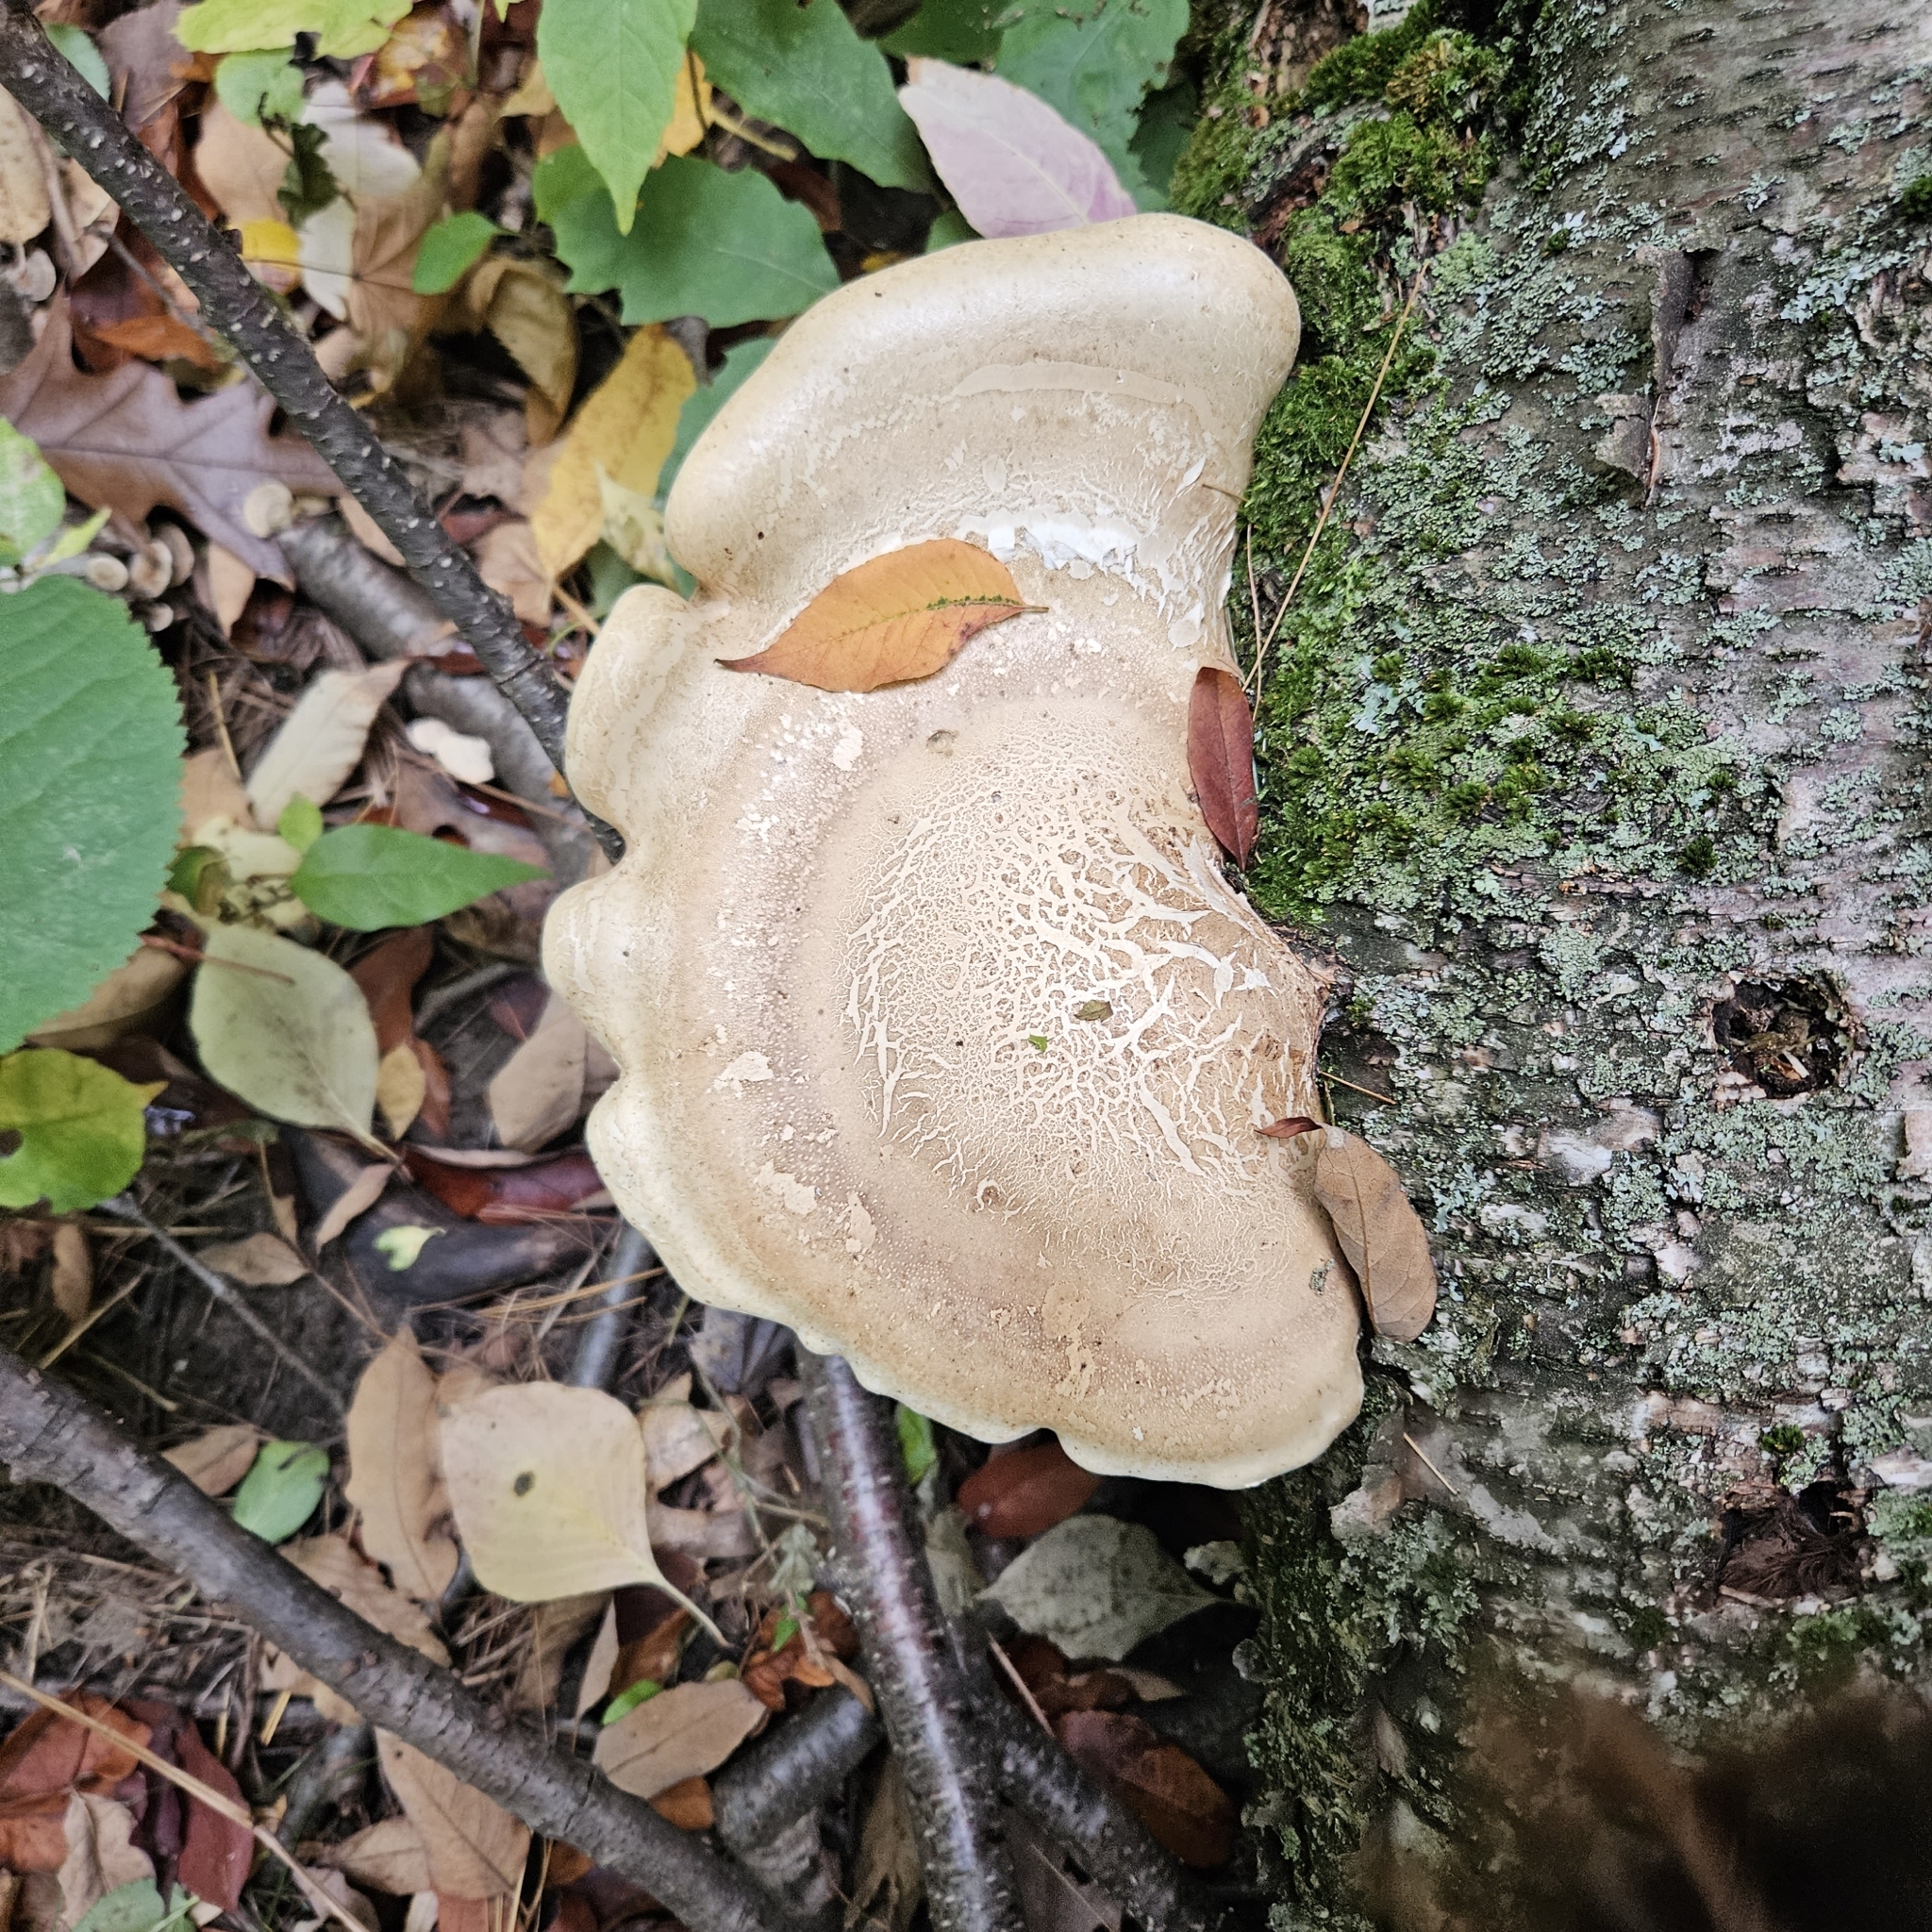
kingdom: Fungi
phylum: Basidiomycota
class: Agaricomycetes
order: Polyporales
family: Fomitopsidaceae
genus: Fomitopsis
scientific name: Fomitopsis betulina
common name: Birch polypore
